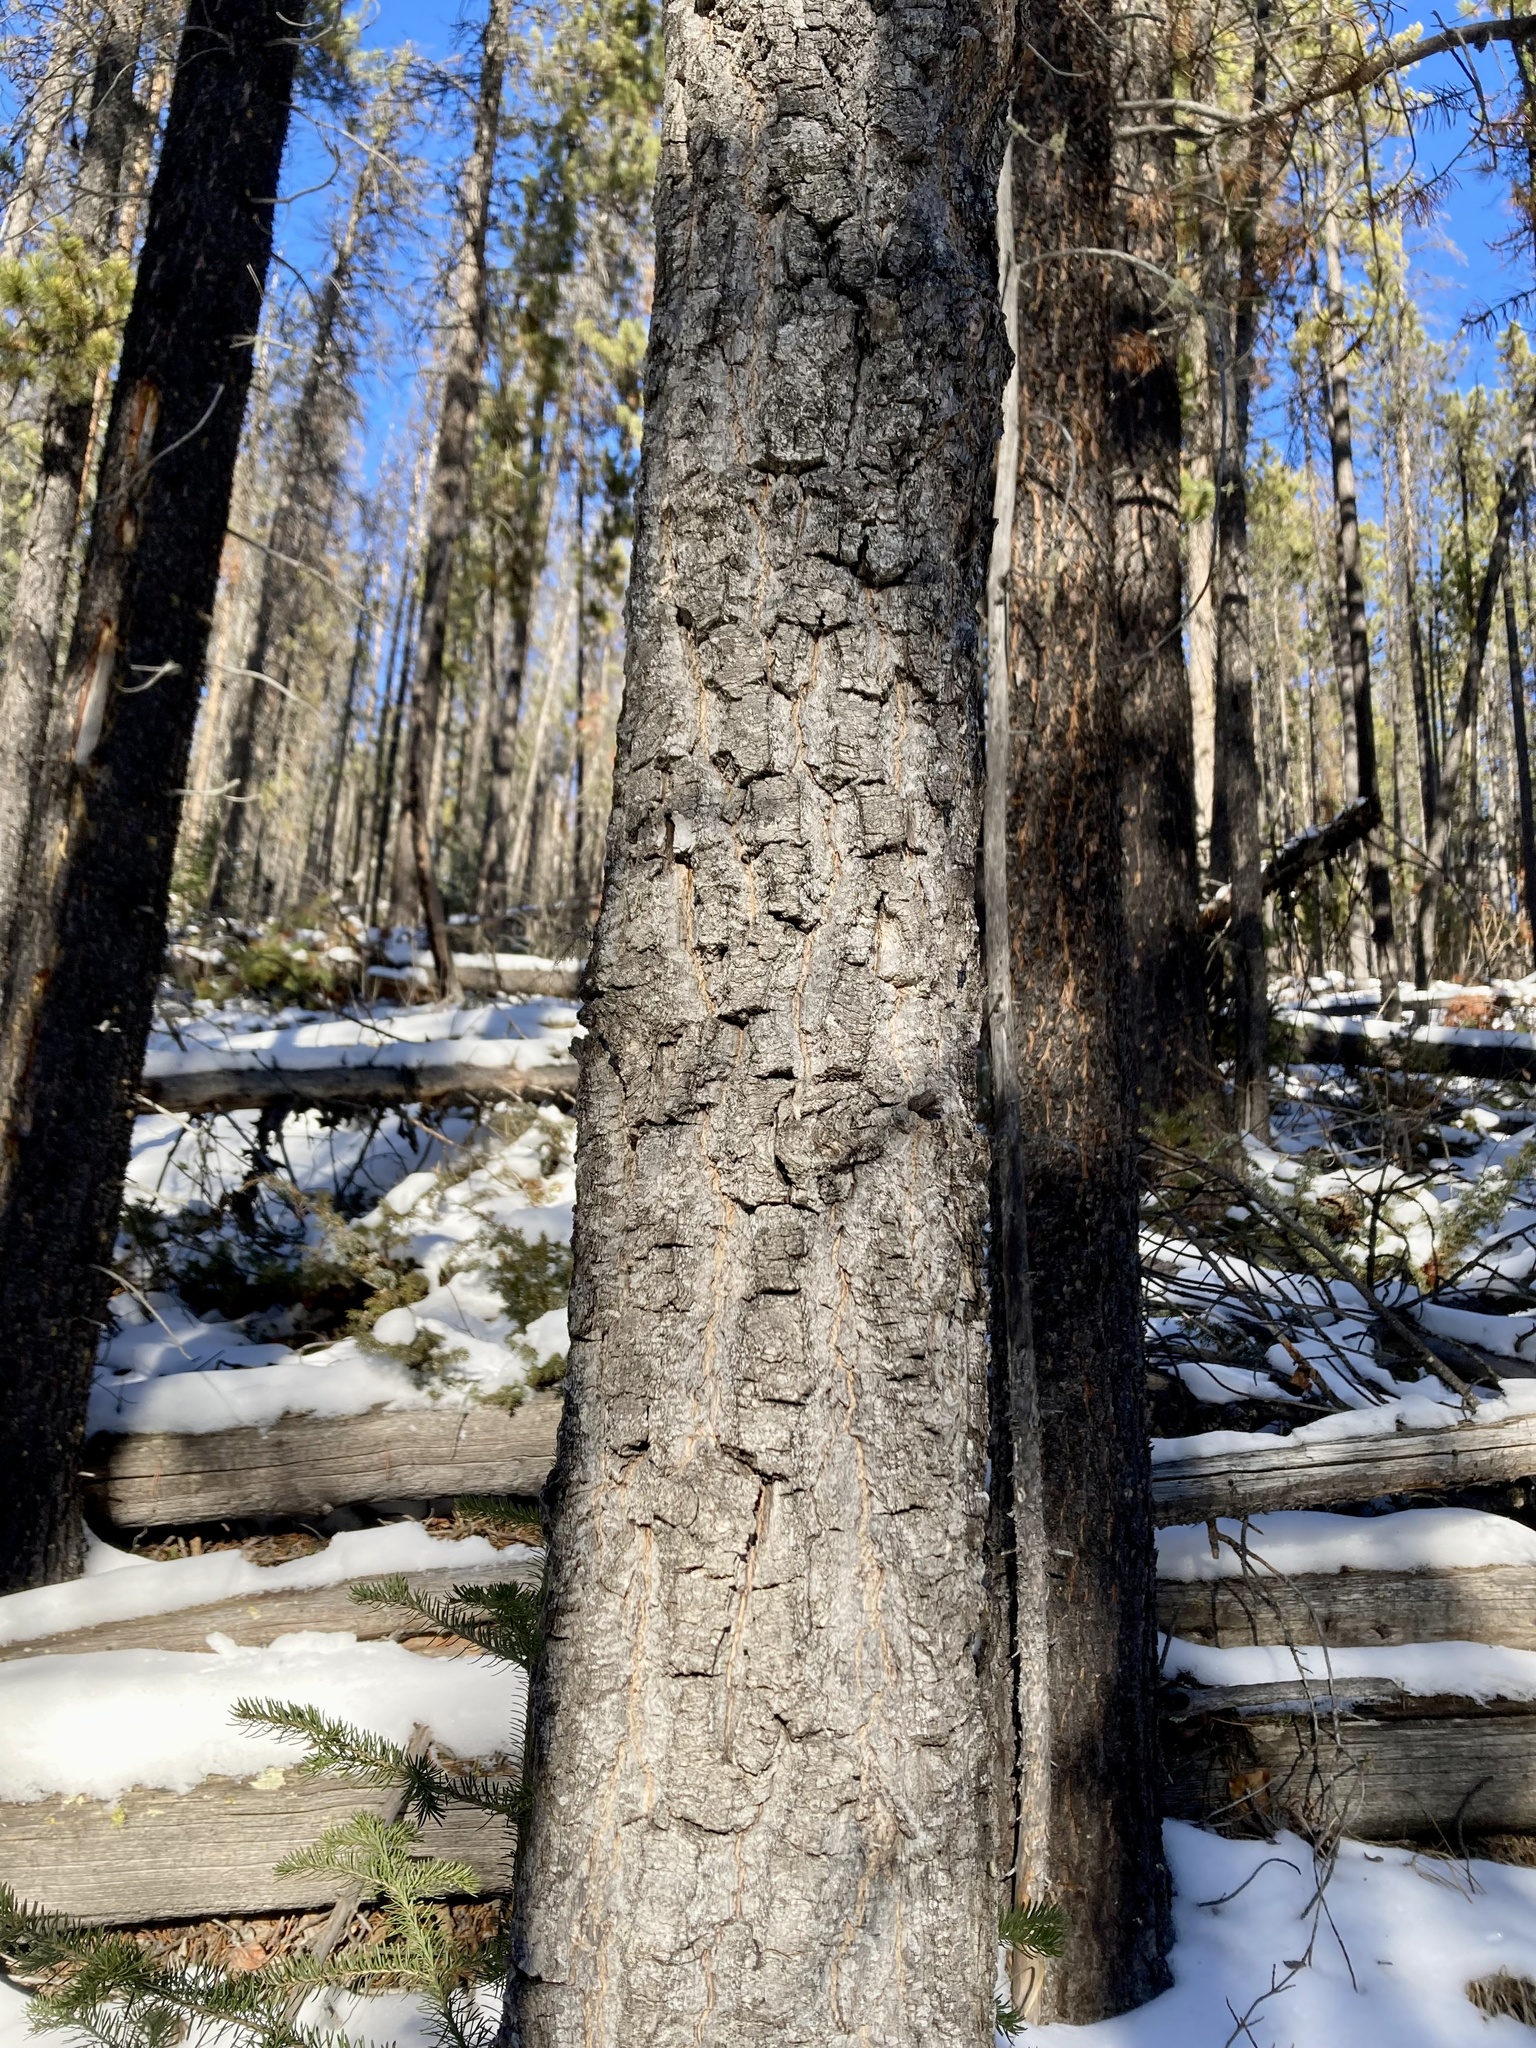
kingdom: Plantae
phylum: Tracheophyta
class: Magnoliopsida
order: Malpighiales
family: Salicaceae
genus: Populus
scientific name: Populus balsamifera
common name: Balsam poplar
